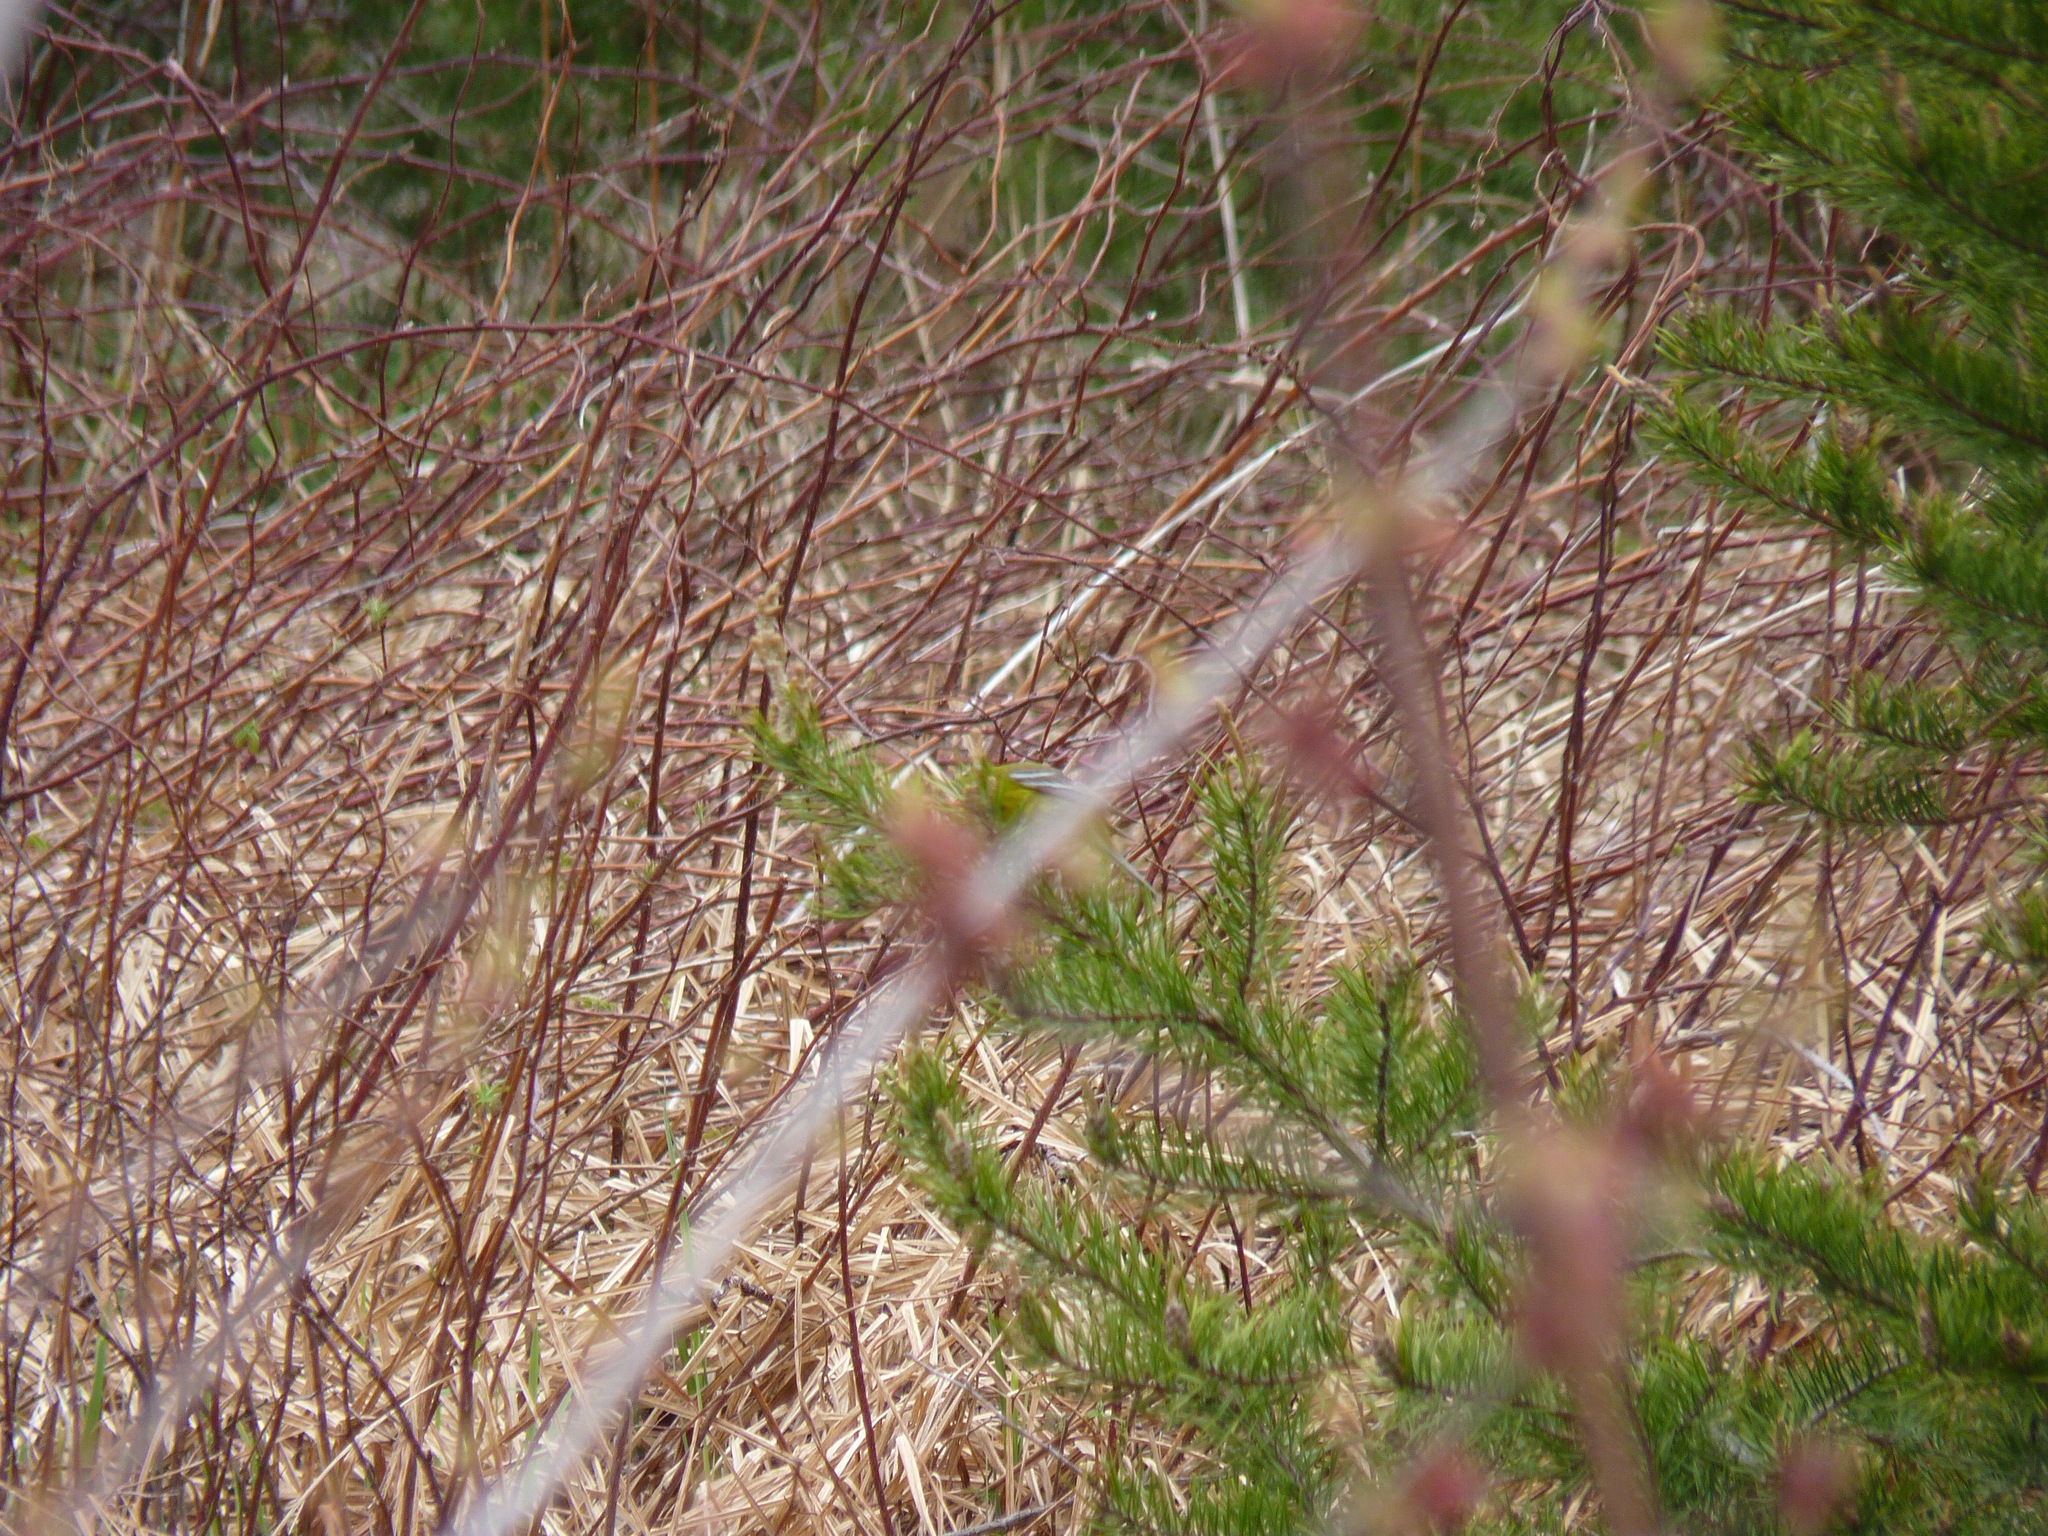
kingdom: Animalia
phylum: Chordata
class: Aves
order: Passeriformes
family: Parulidae
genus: Setophaga
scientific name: Setophaga pinus
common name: Pine warbler
